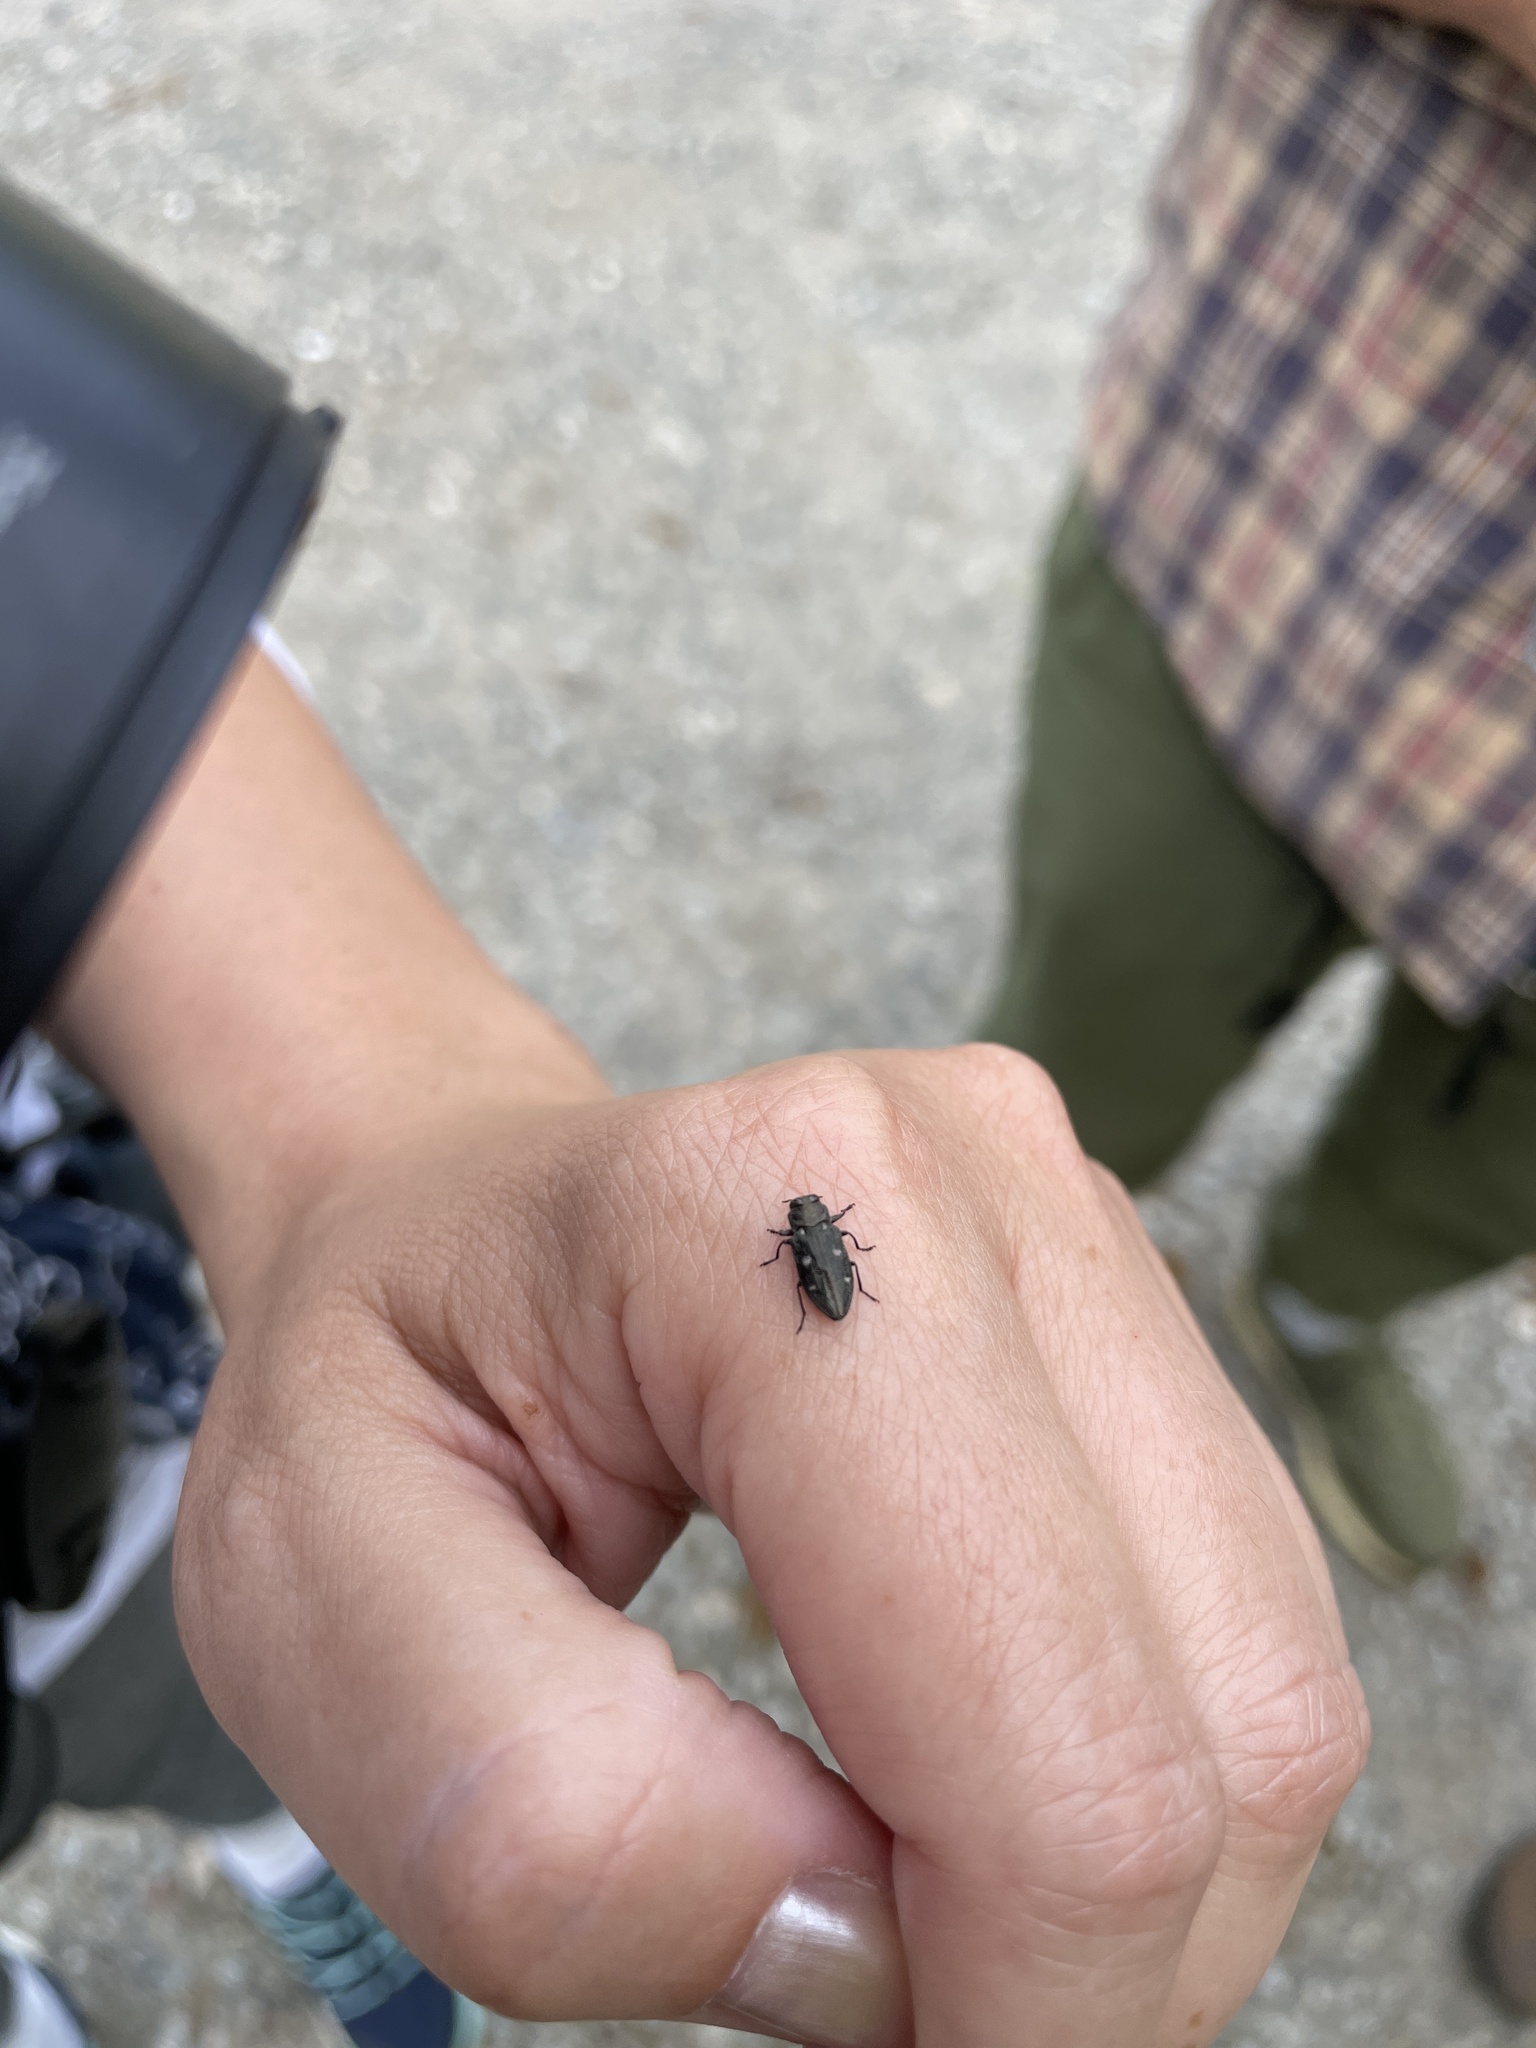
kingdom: Animalia
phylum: Arthropoda
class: Insecta
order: Coleoptera
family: Buprestidae
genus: Chrysobothris
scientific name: Chrysobothris sexsignata
